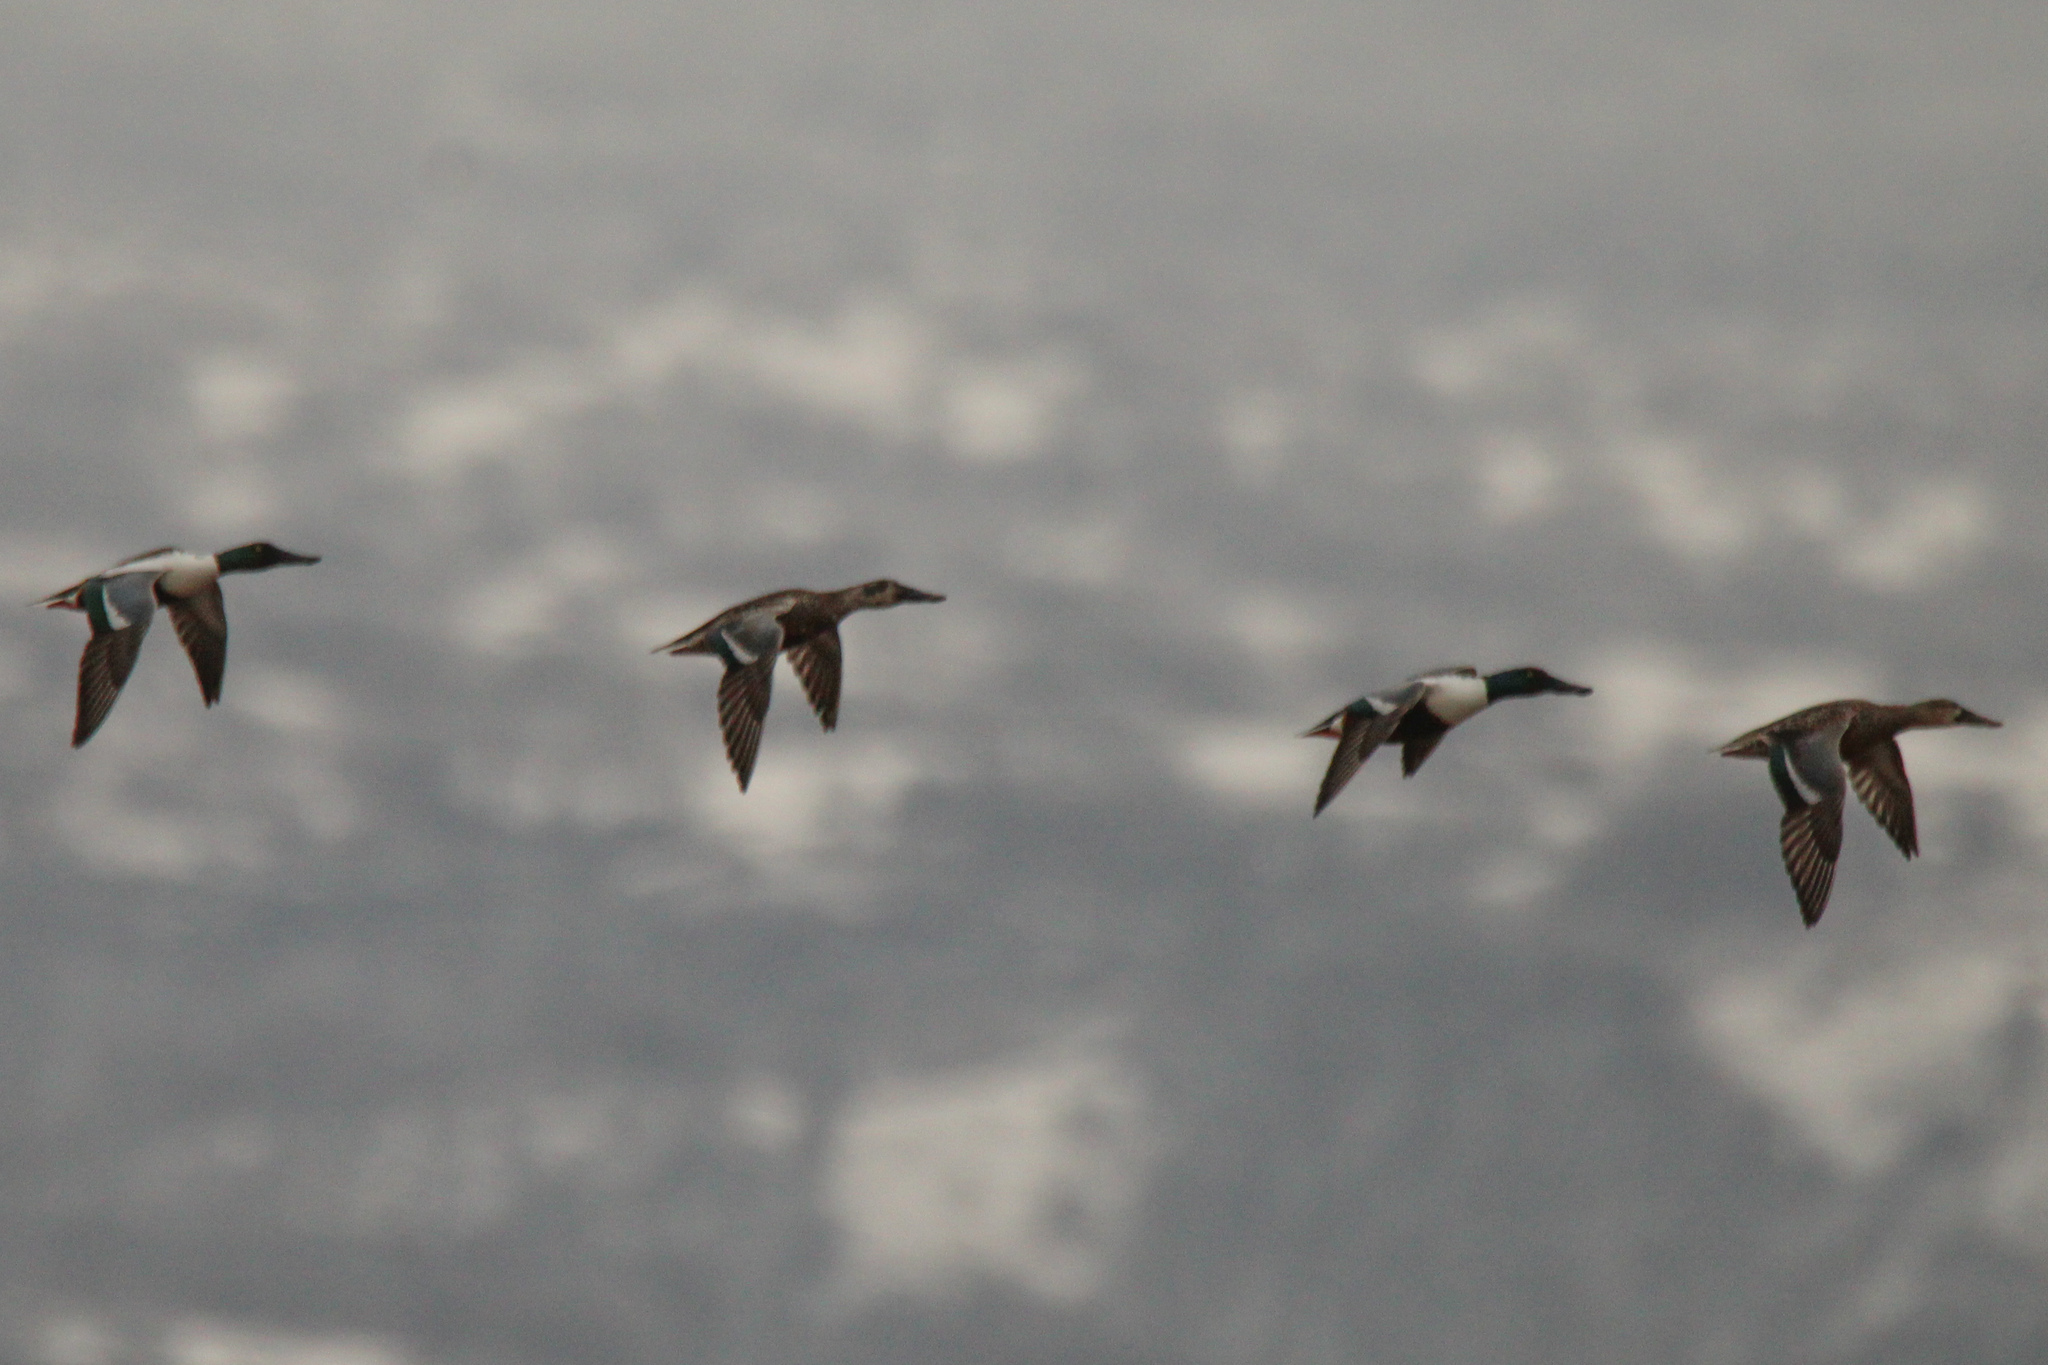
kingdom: Animalia
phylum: Chordata
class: Aves
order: Anseriformes
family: Anatidae
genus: Spatula
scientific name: Spatula clypeata
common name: Northern shoveler
